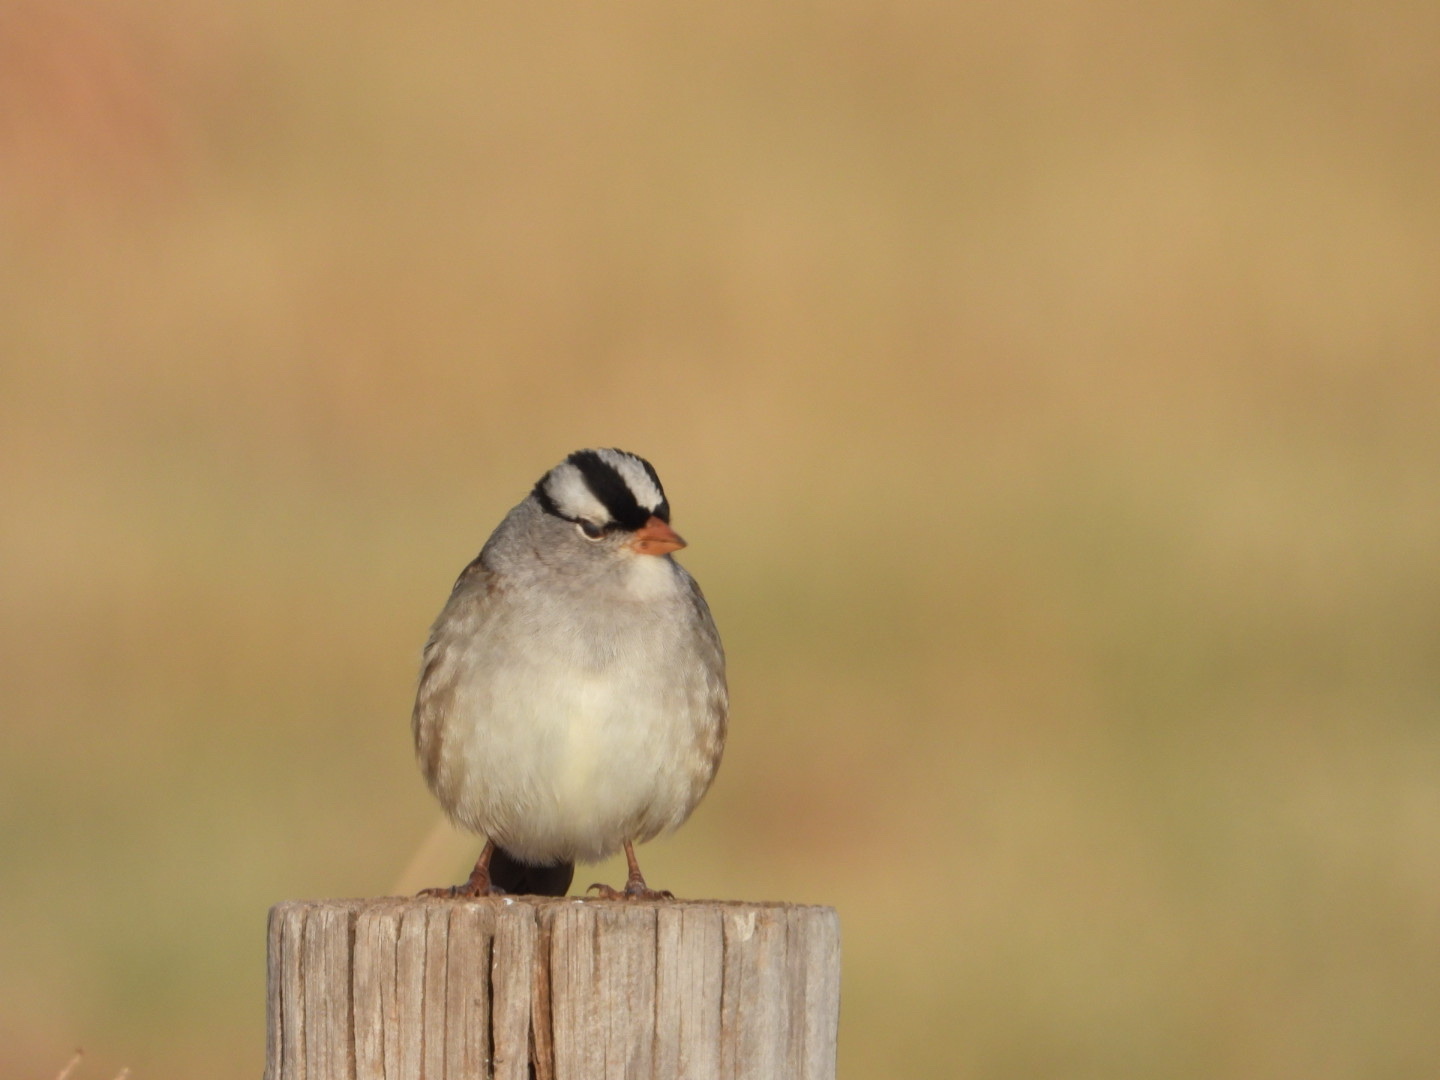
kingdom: Animalia
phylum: Chordata
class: Aves
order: Passeriformes
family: Passerellidae
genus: Zonotrichia
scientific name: Zonotrichia leucophrys
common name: White-crowned sparrow
